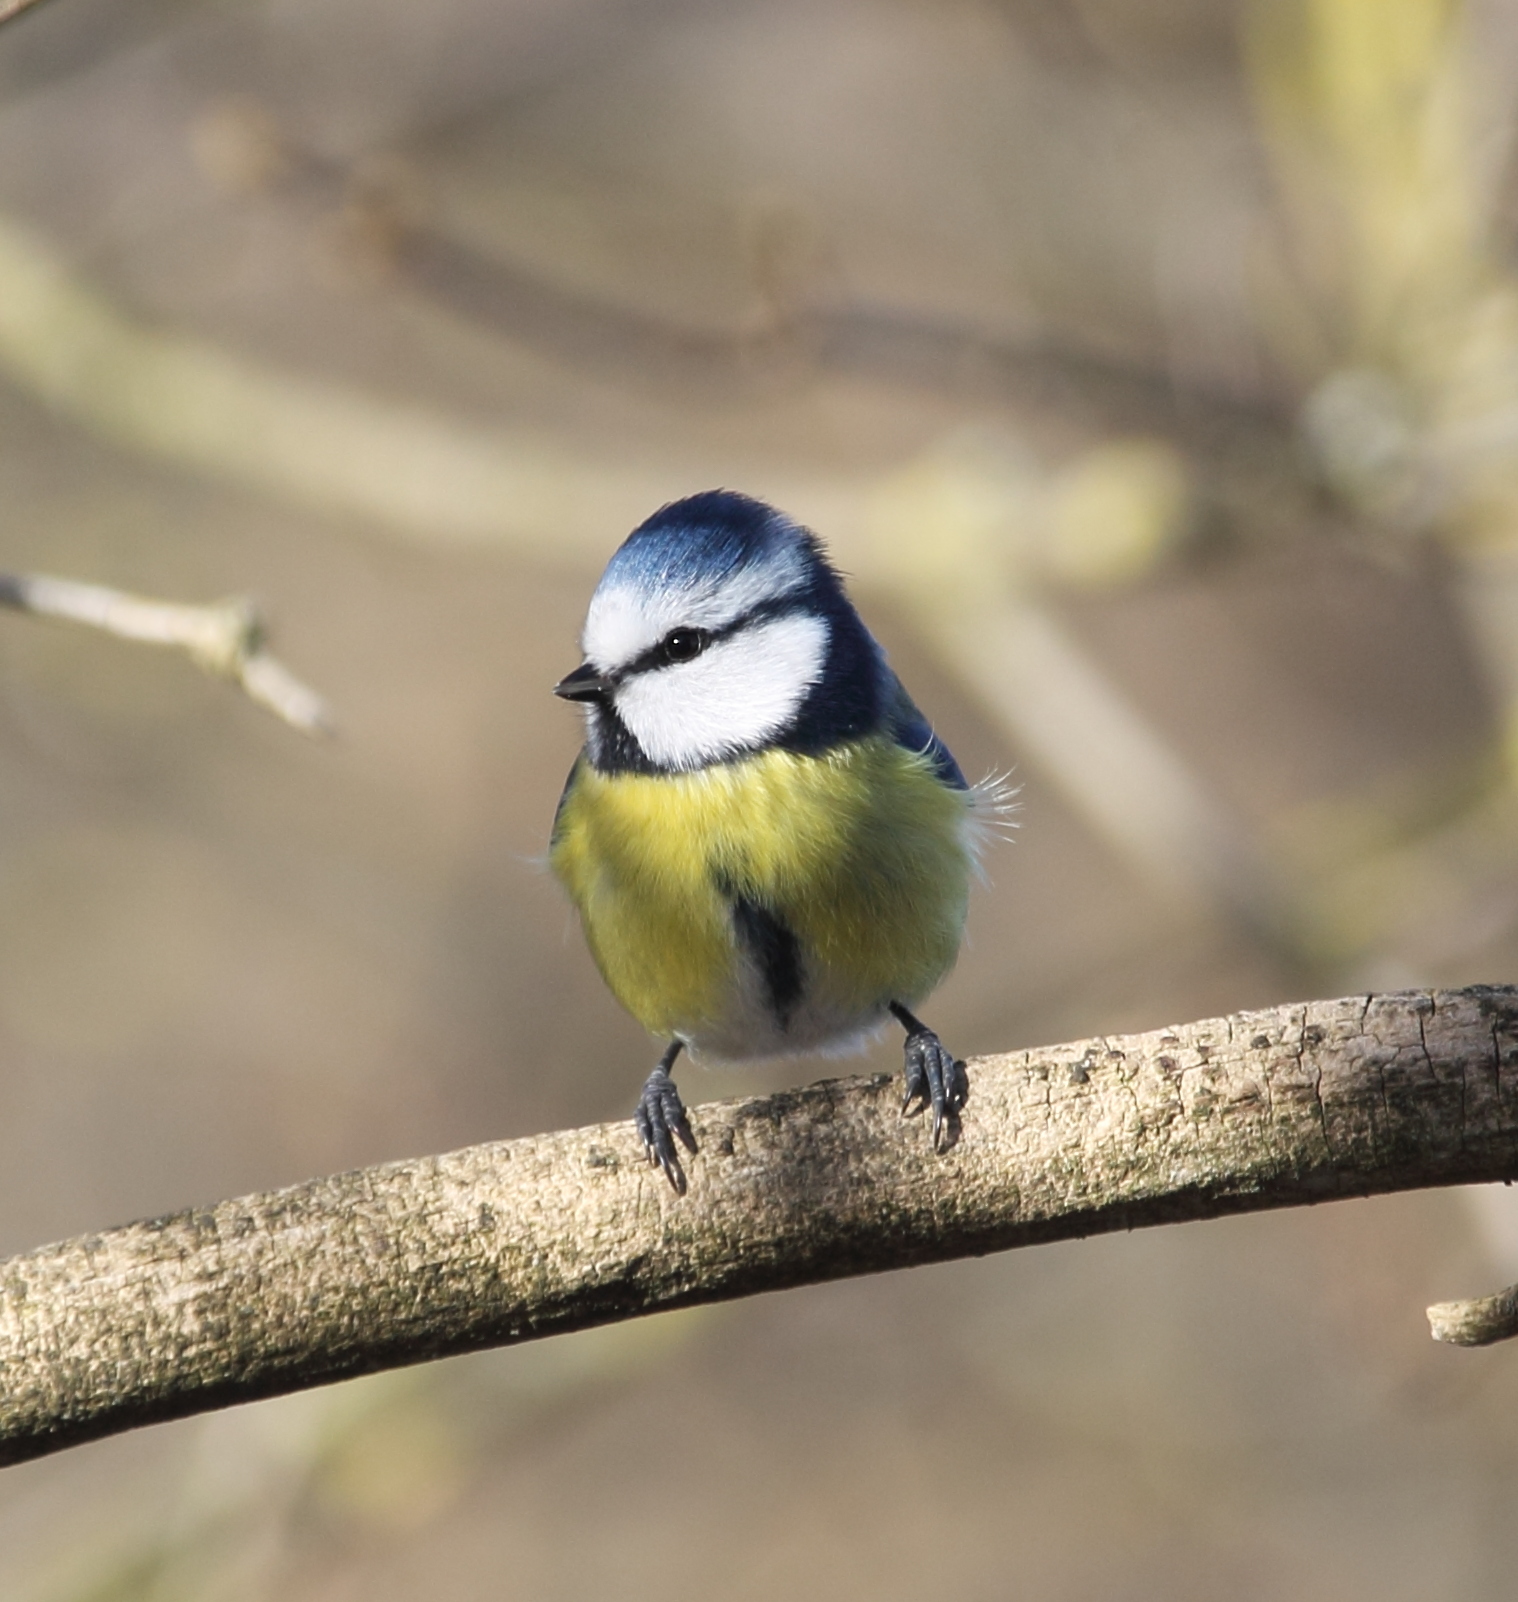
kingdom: Animalia
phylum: Chordata
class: Aves
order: Passeriformes
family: Paridae
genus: Cyanistes
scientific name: Cyanistes caeruleus
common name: Eurasian blue tit
